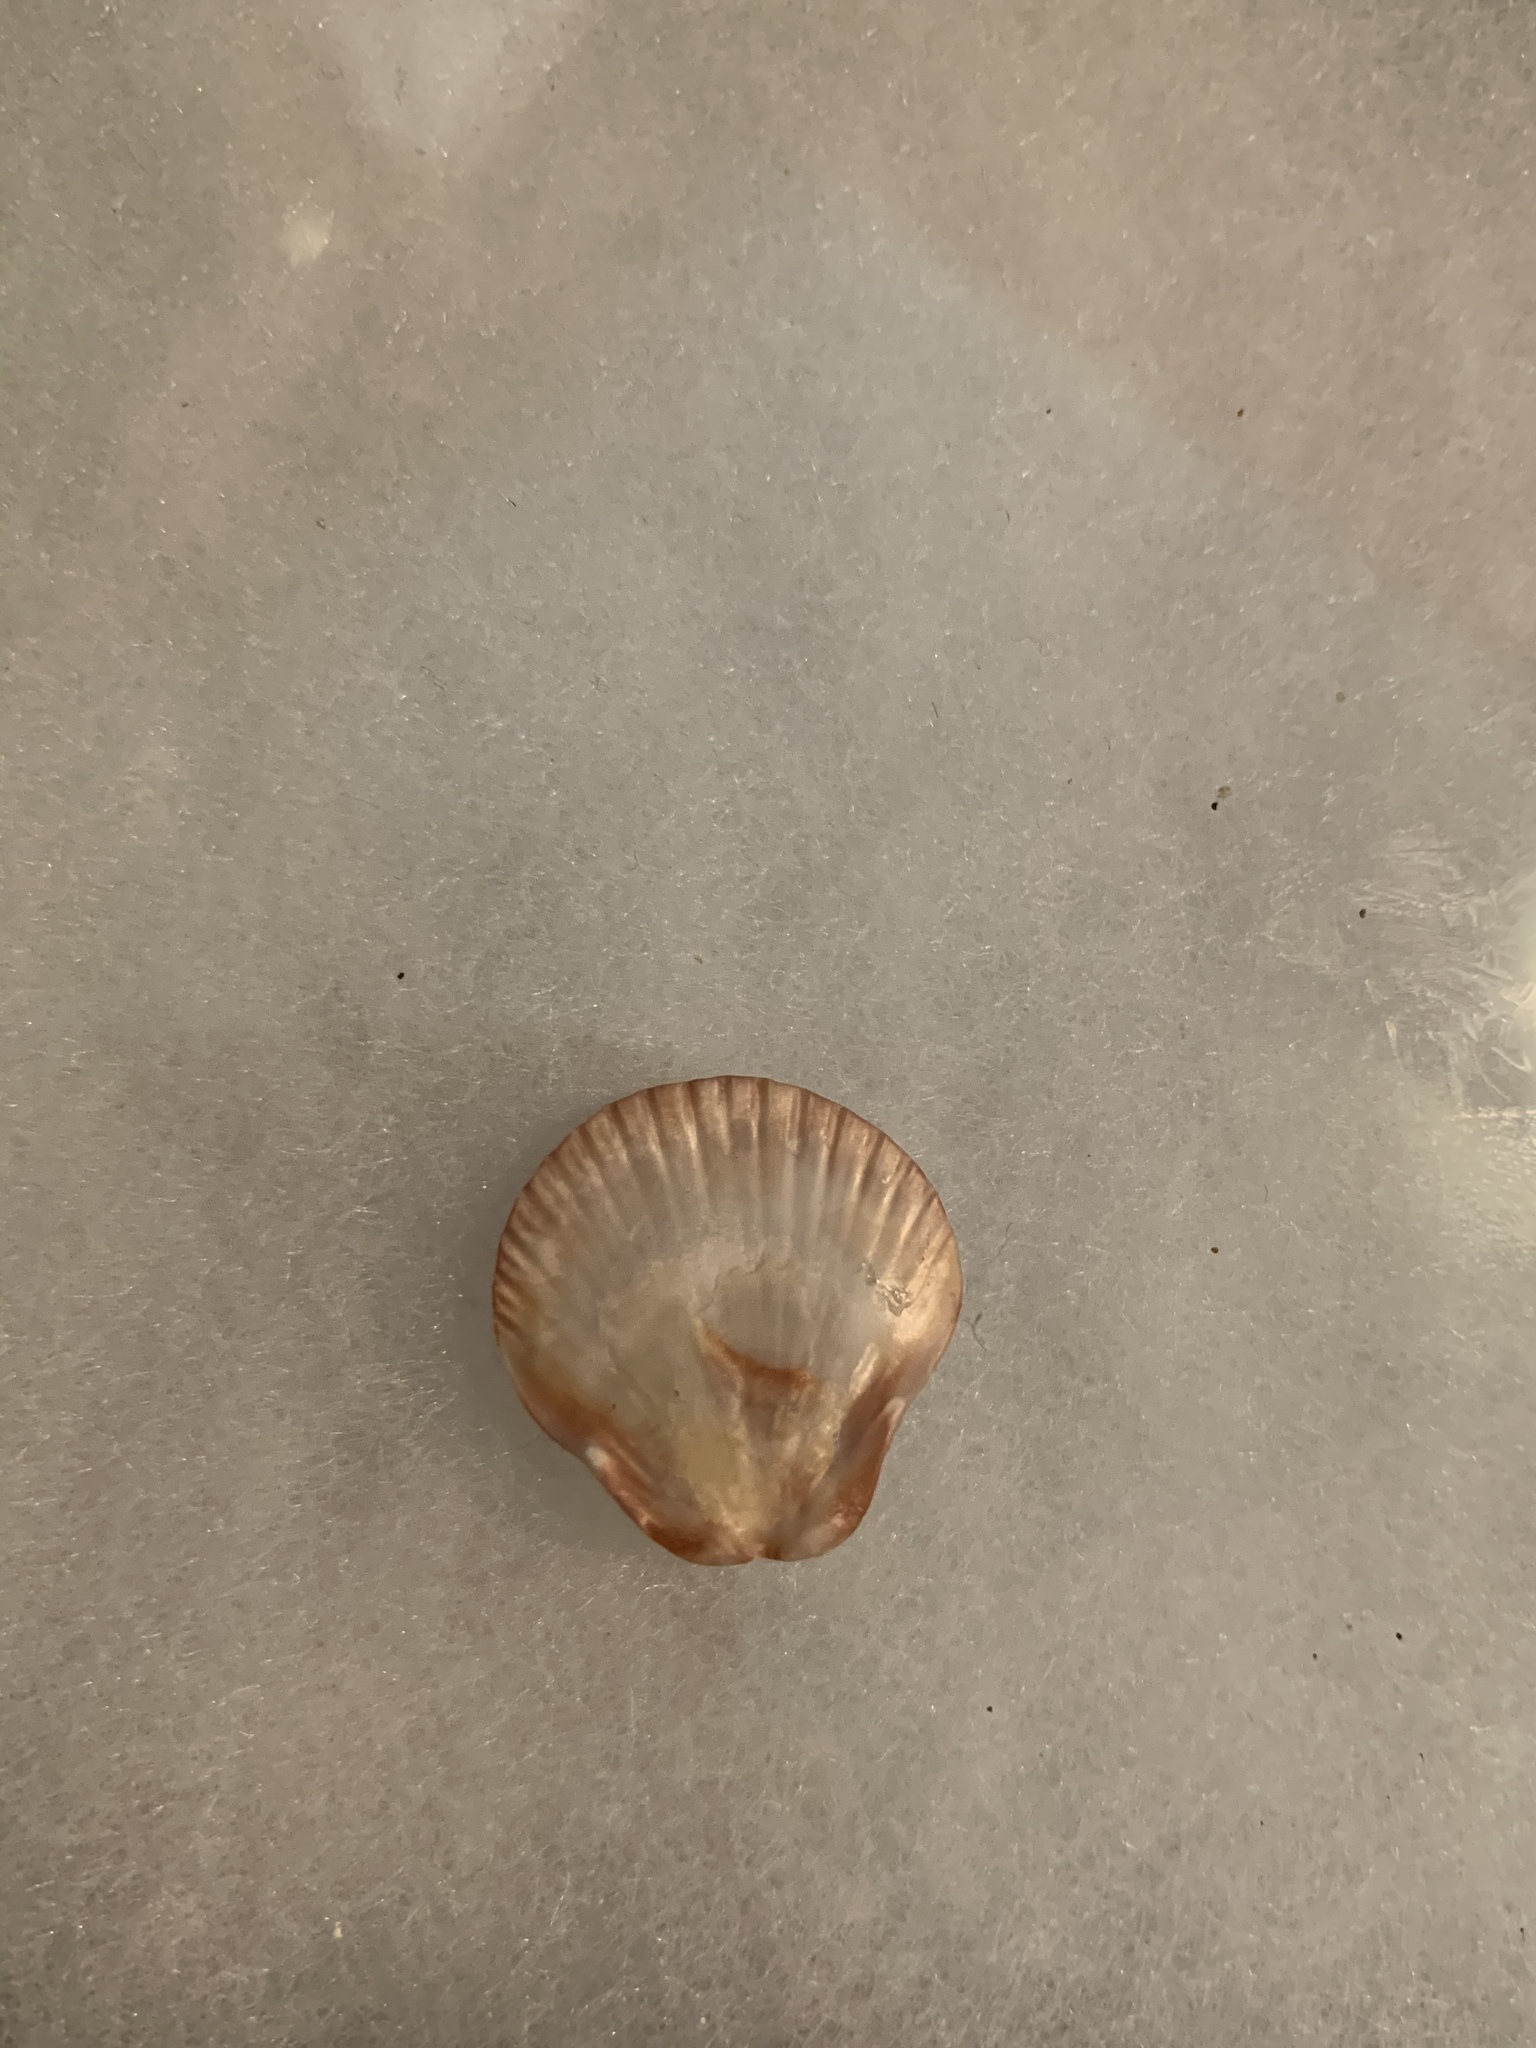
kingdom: Animalia
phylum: Mollusca
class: Bivalvia
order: Pectinida
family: Pectinidae
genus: Euvola
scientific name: Euvola raveneli
